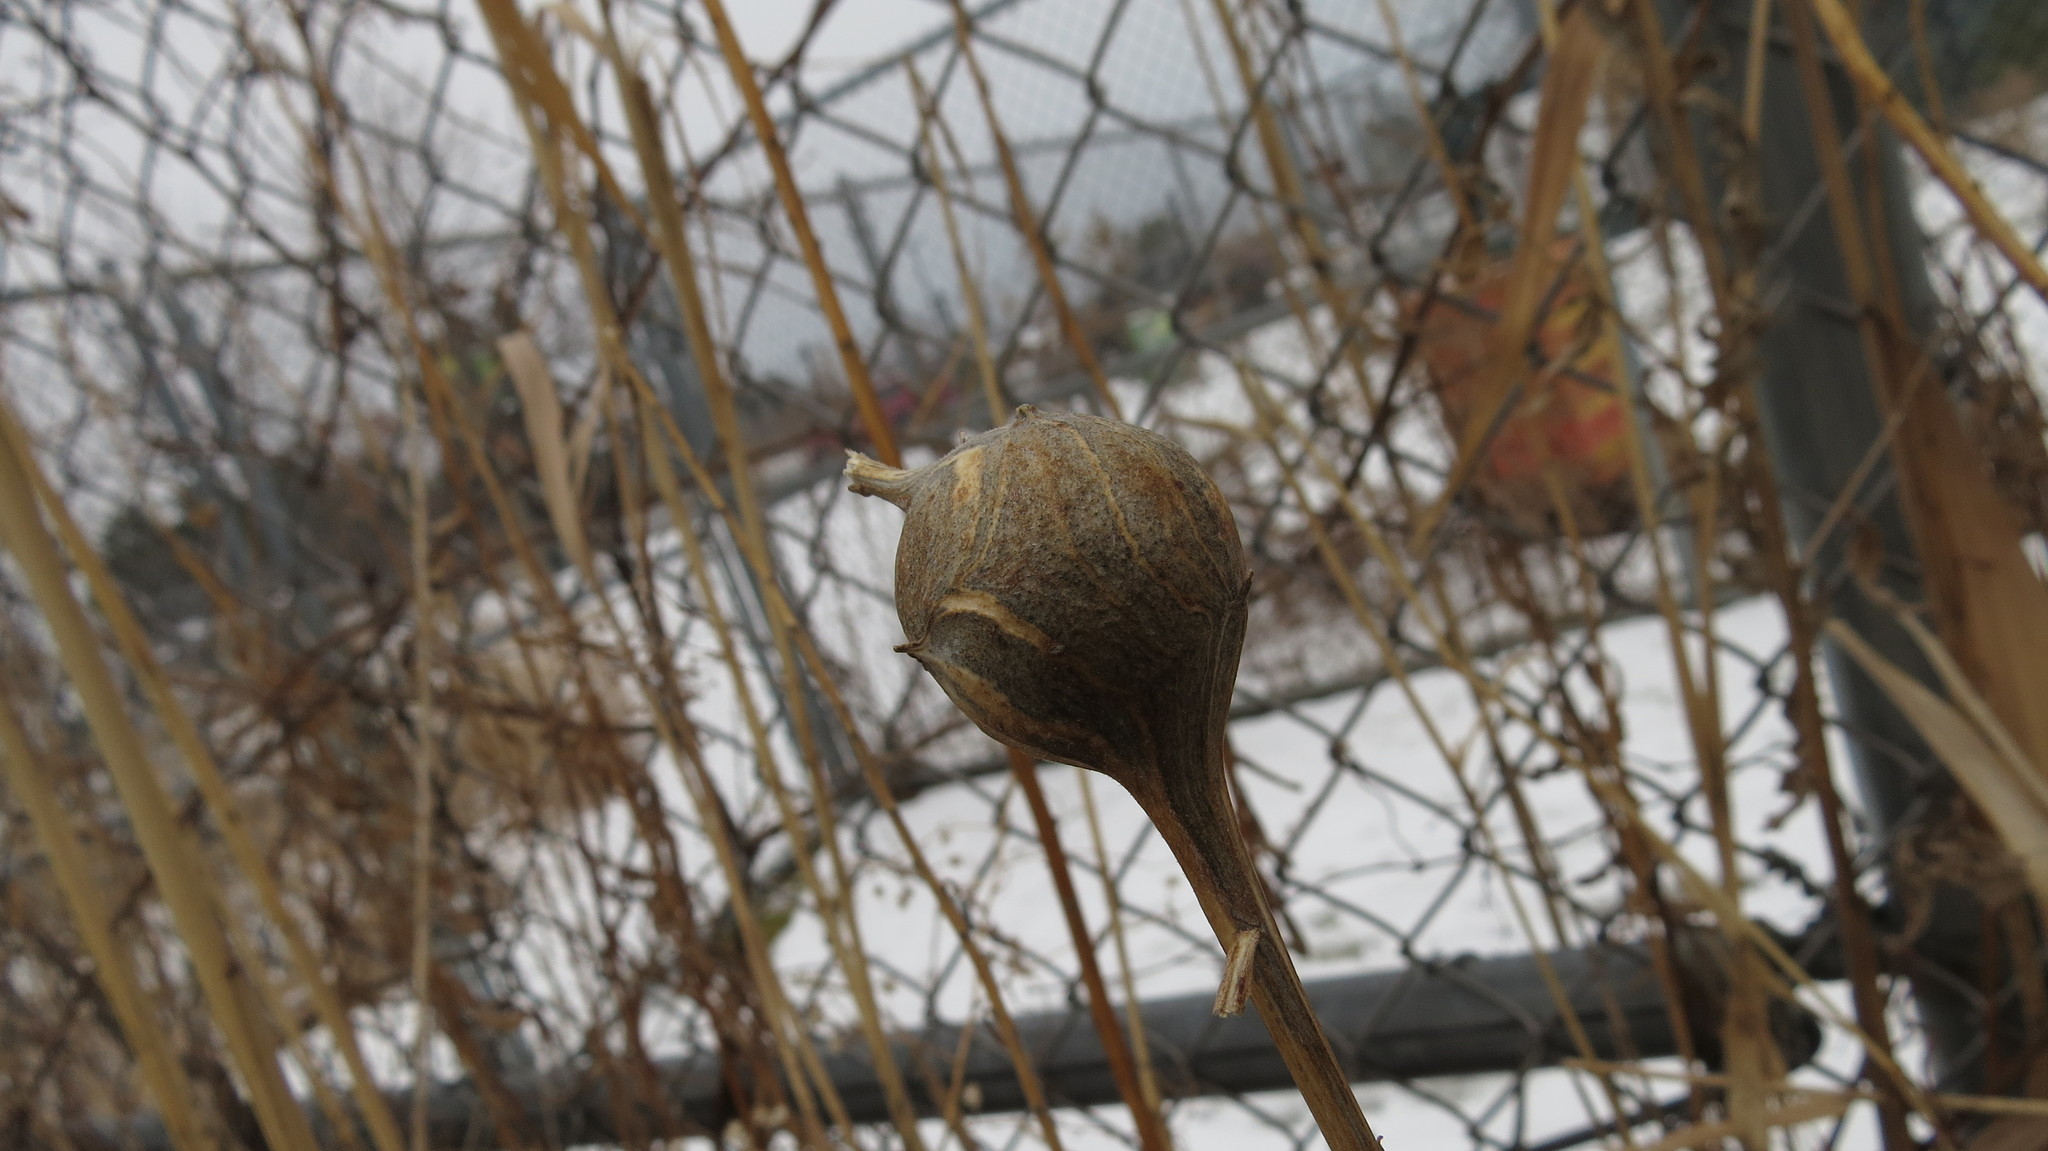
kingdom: Animalia
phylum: Arthropoda
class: Insecta
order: Diptera
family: Tephritidae
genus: Eurosta
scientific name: Eurosta solidaginis
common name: Goldenrod gall fly
